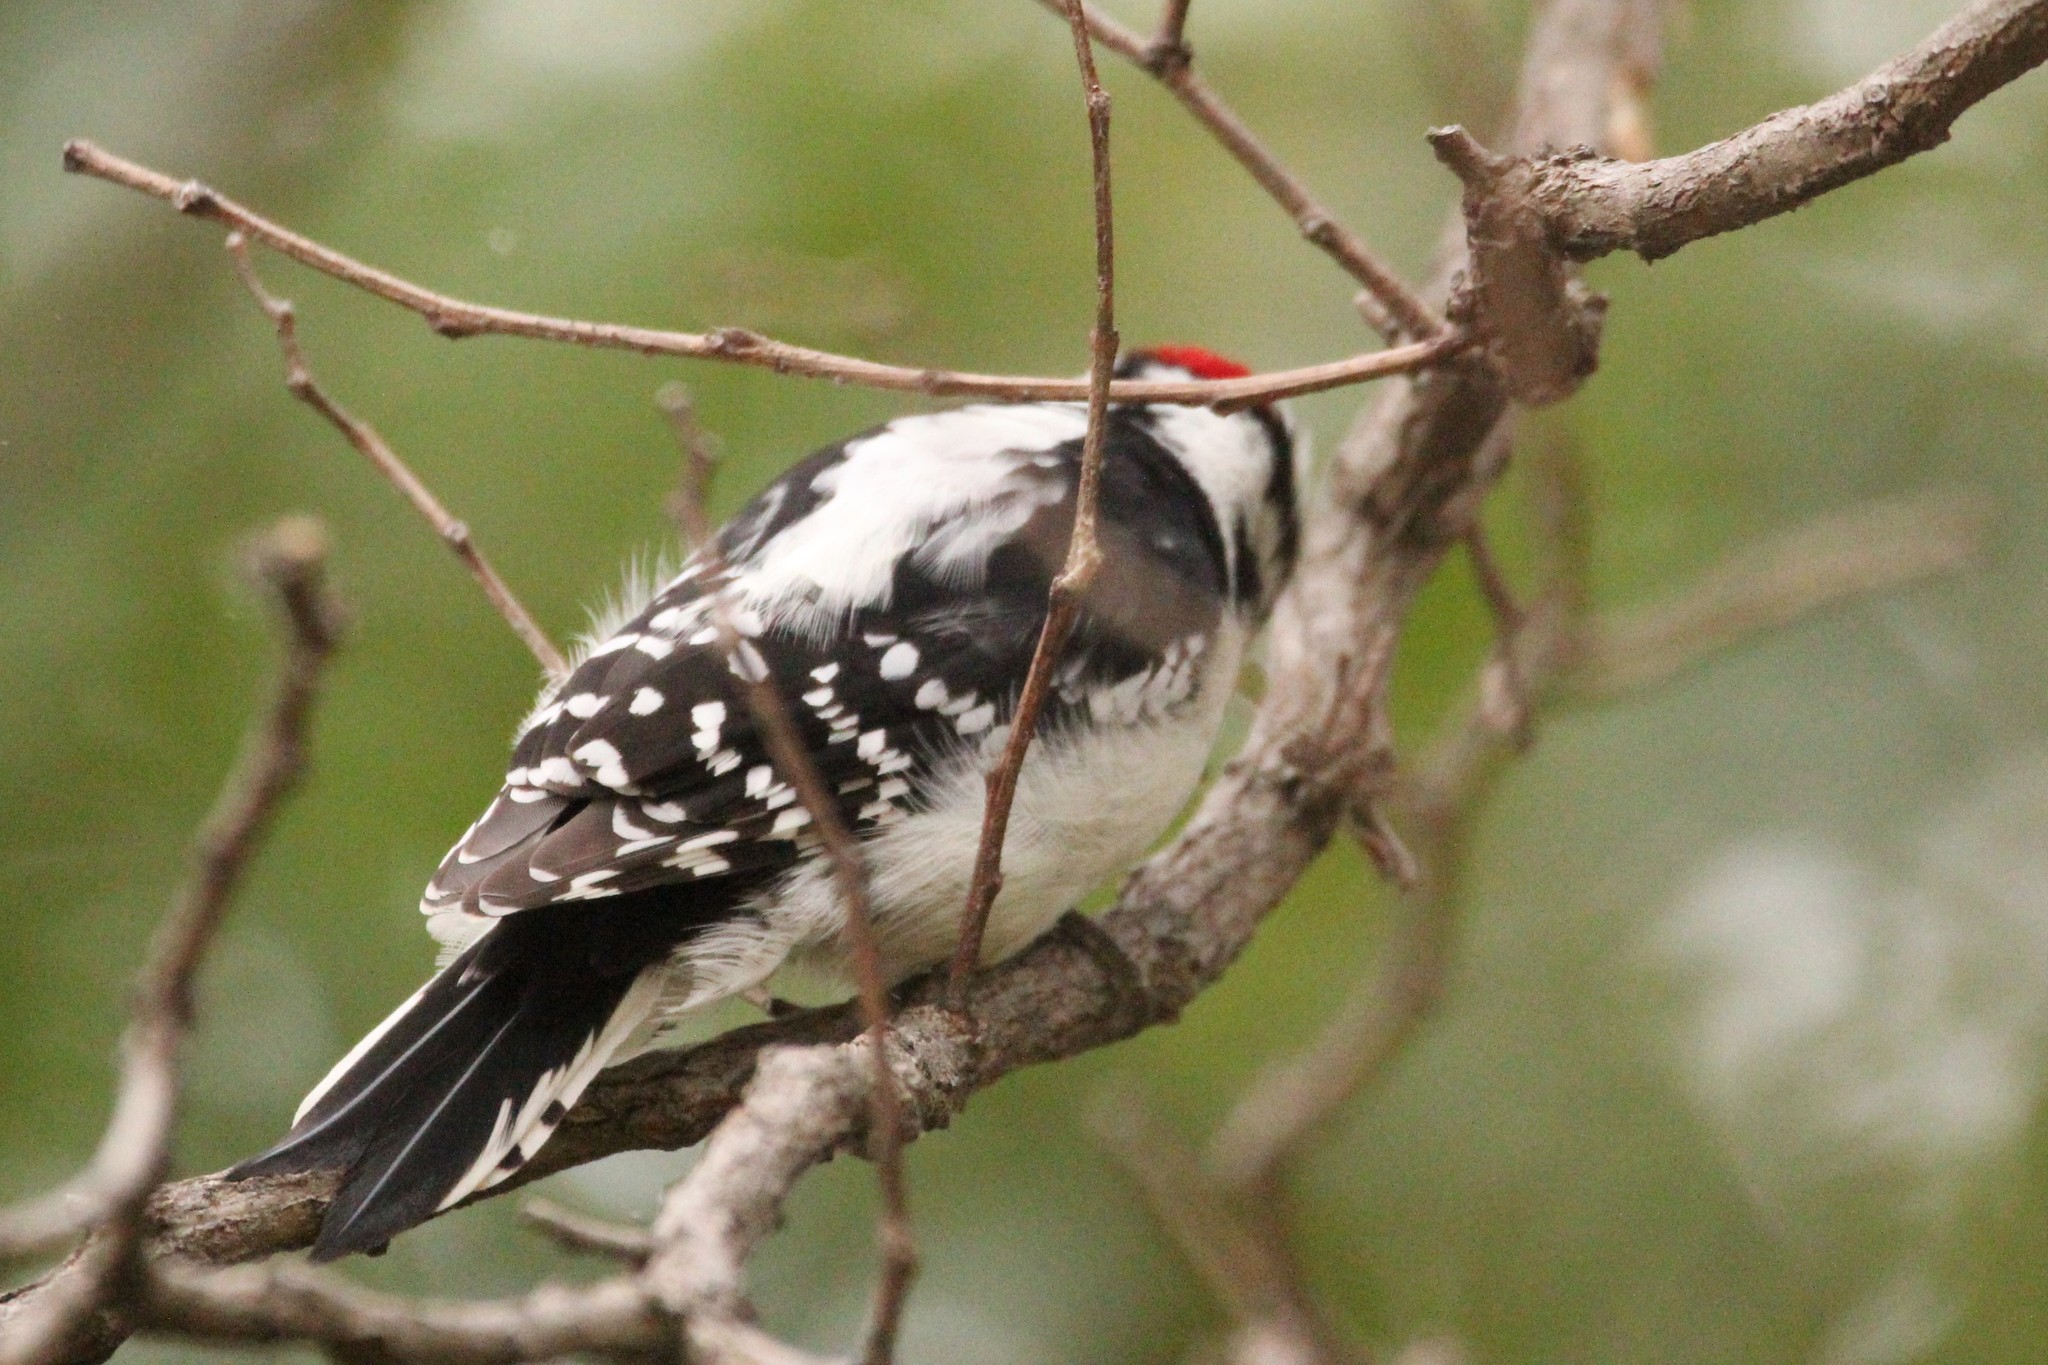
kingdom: Animalia
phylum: Chordata
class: Aves
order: Piciformes
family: Picidae
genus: Dryobates
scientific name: Dryobates pubescens
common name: Downy woodpecker
